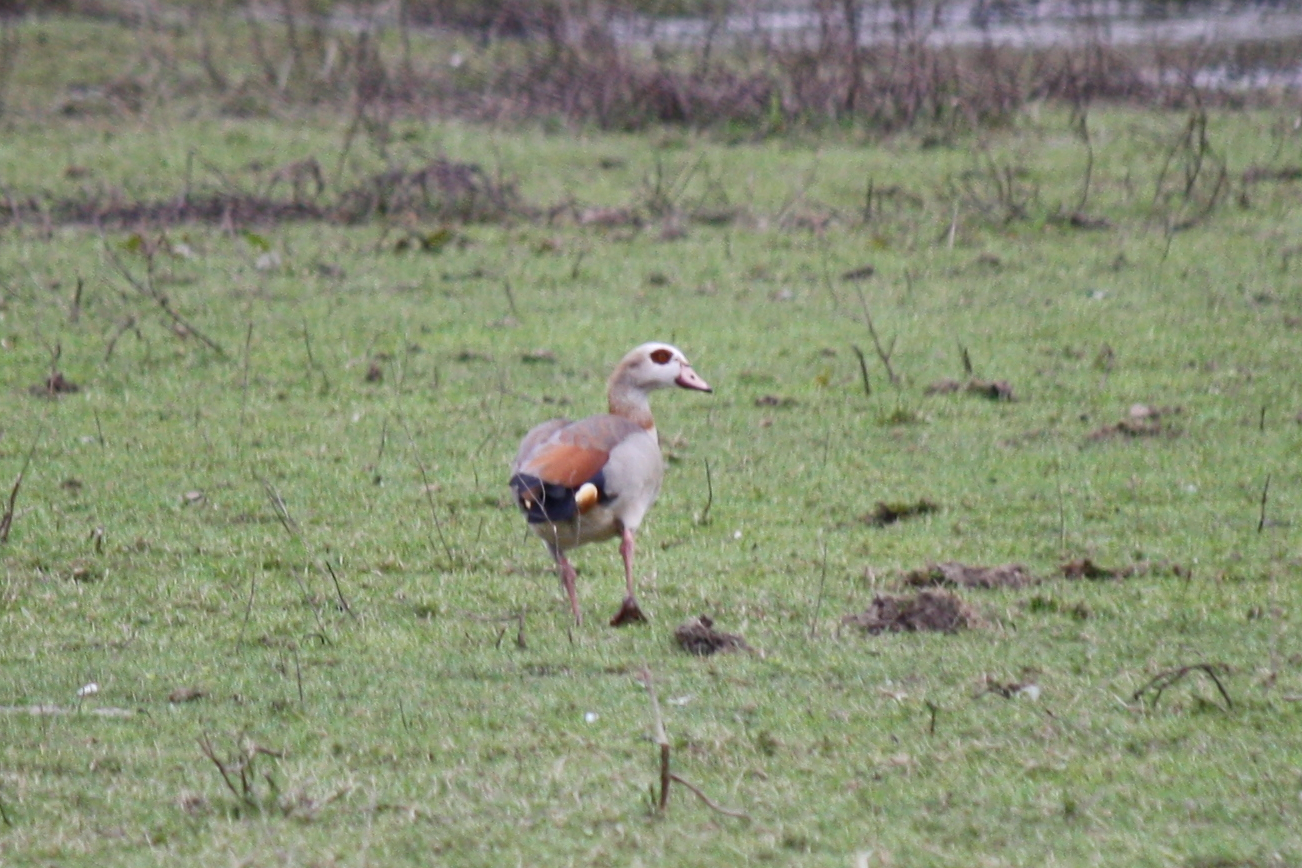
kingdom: Animalia
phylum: Chordata
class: Aves
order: Anseriformes
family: Anatidae
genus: Alopochen
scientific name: Alopochen aegyptiaca
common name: Egyptian goose
